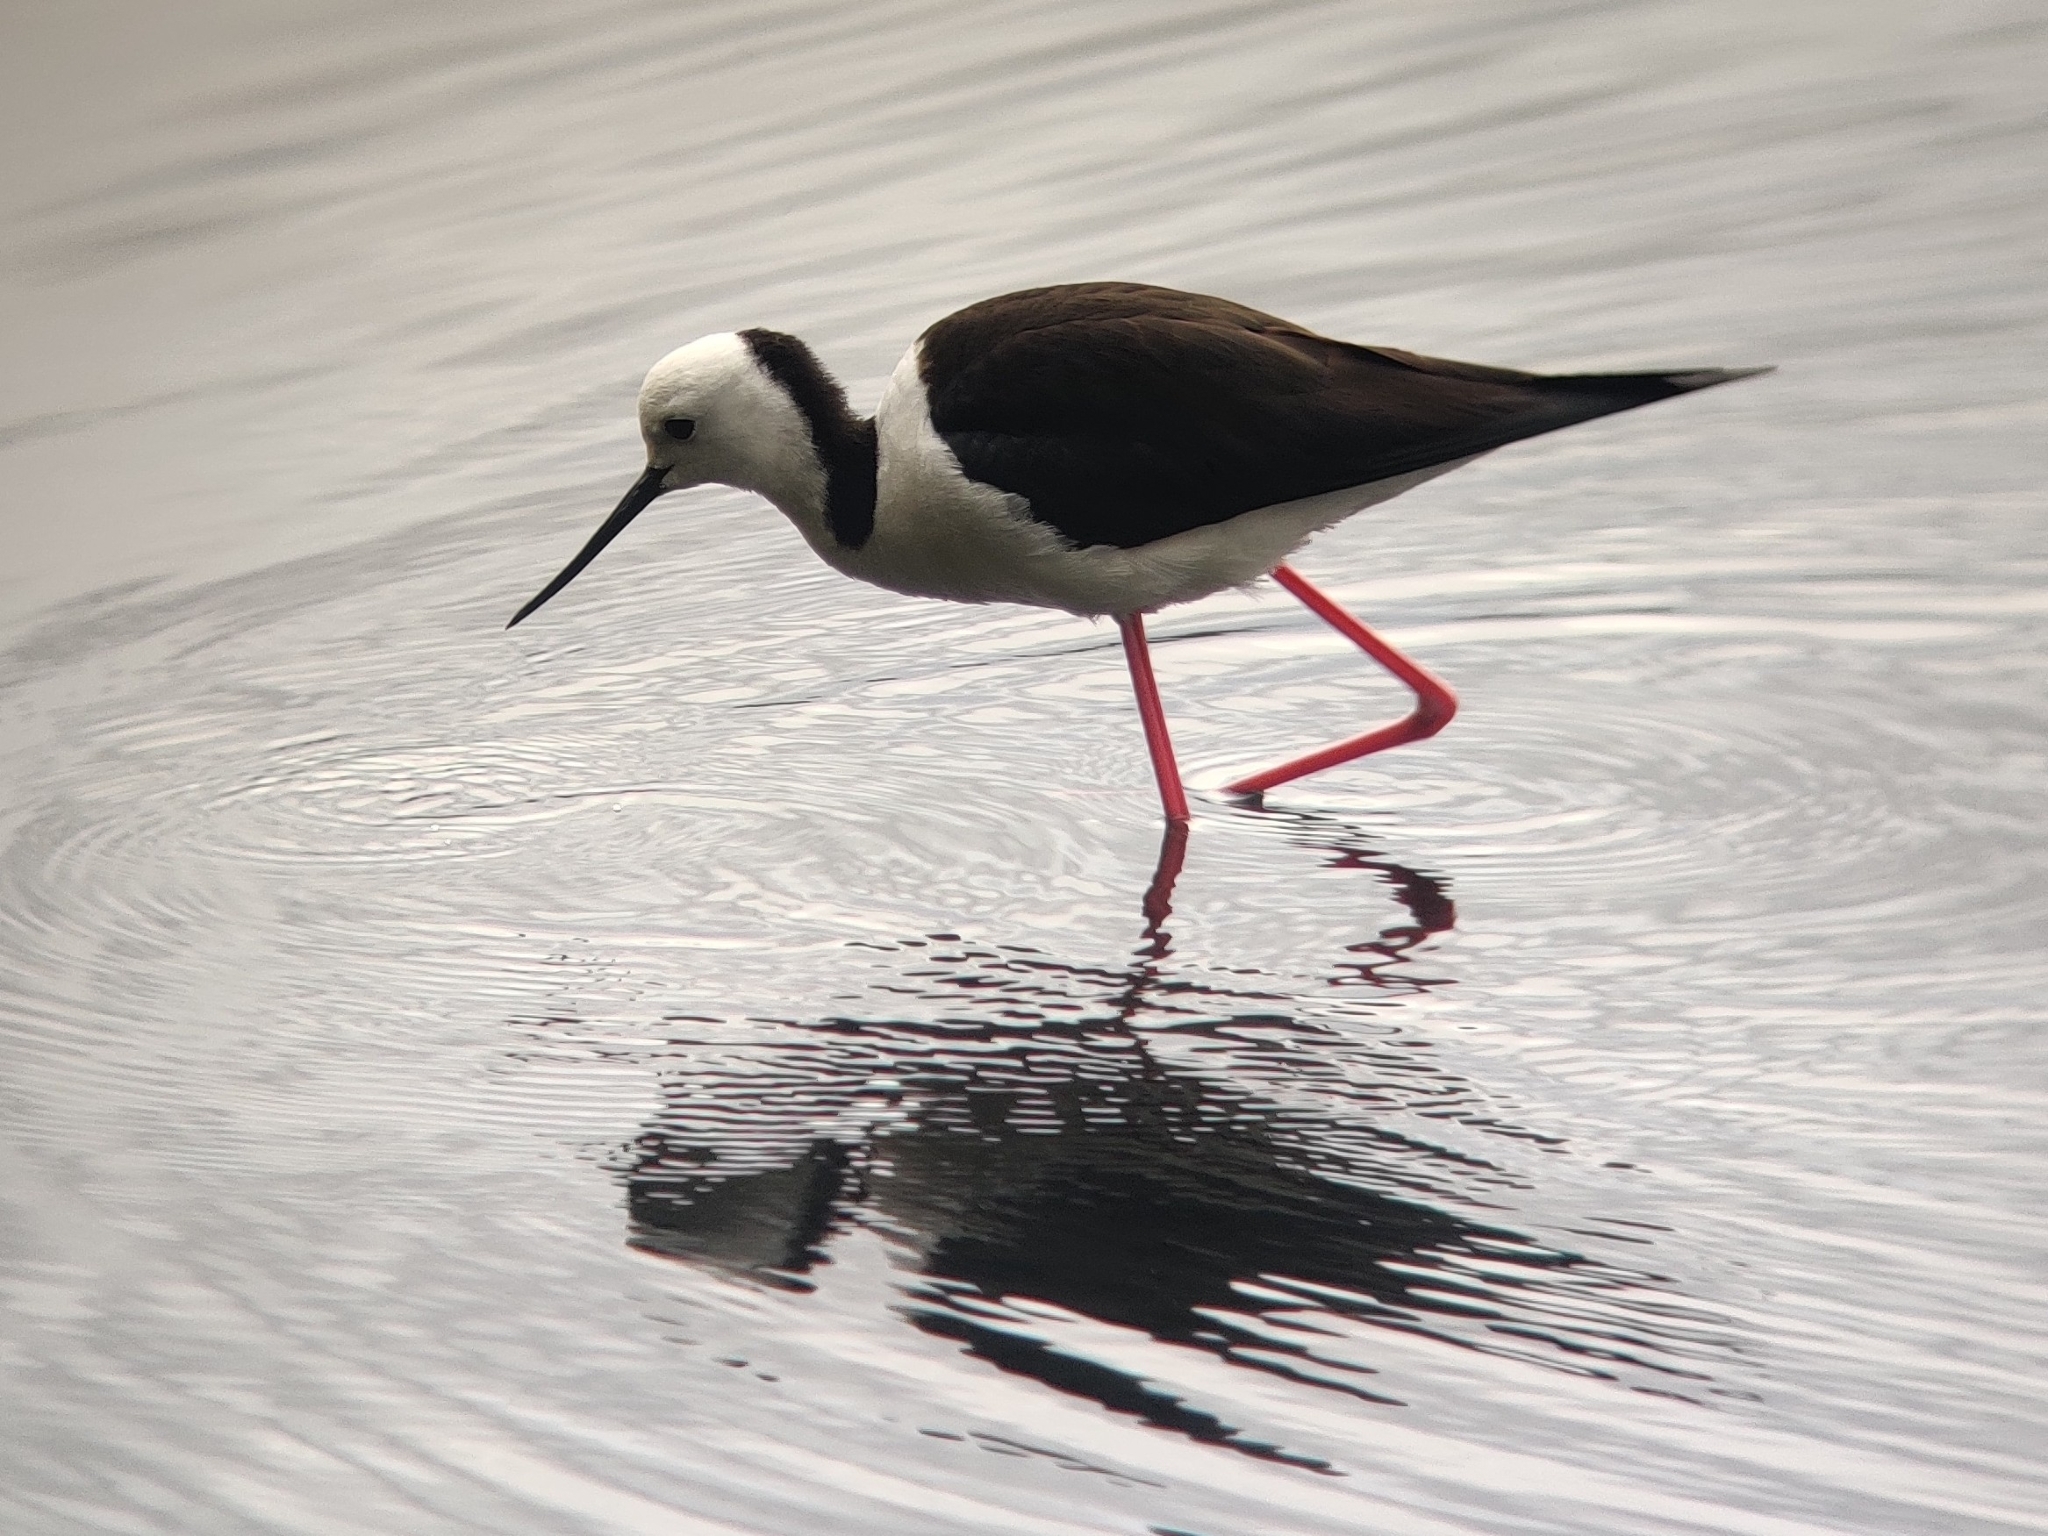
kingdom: Animalia
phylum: Chordata
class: Aves
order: Charadriiformes
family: Recurvirostridae
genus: Himantopus
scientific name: Himantopus leucocephalus
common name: White-headed stilt
